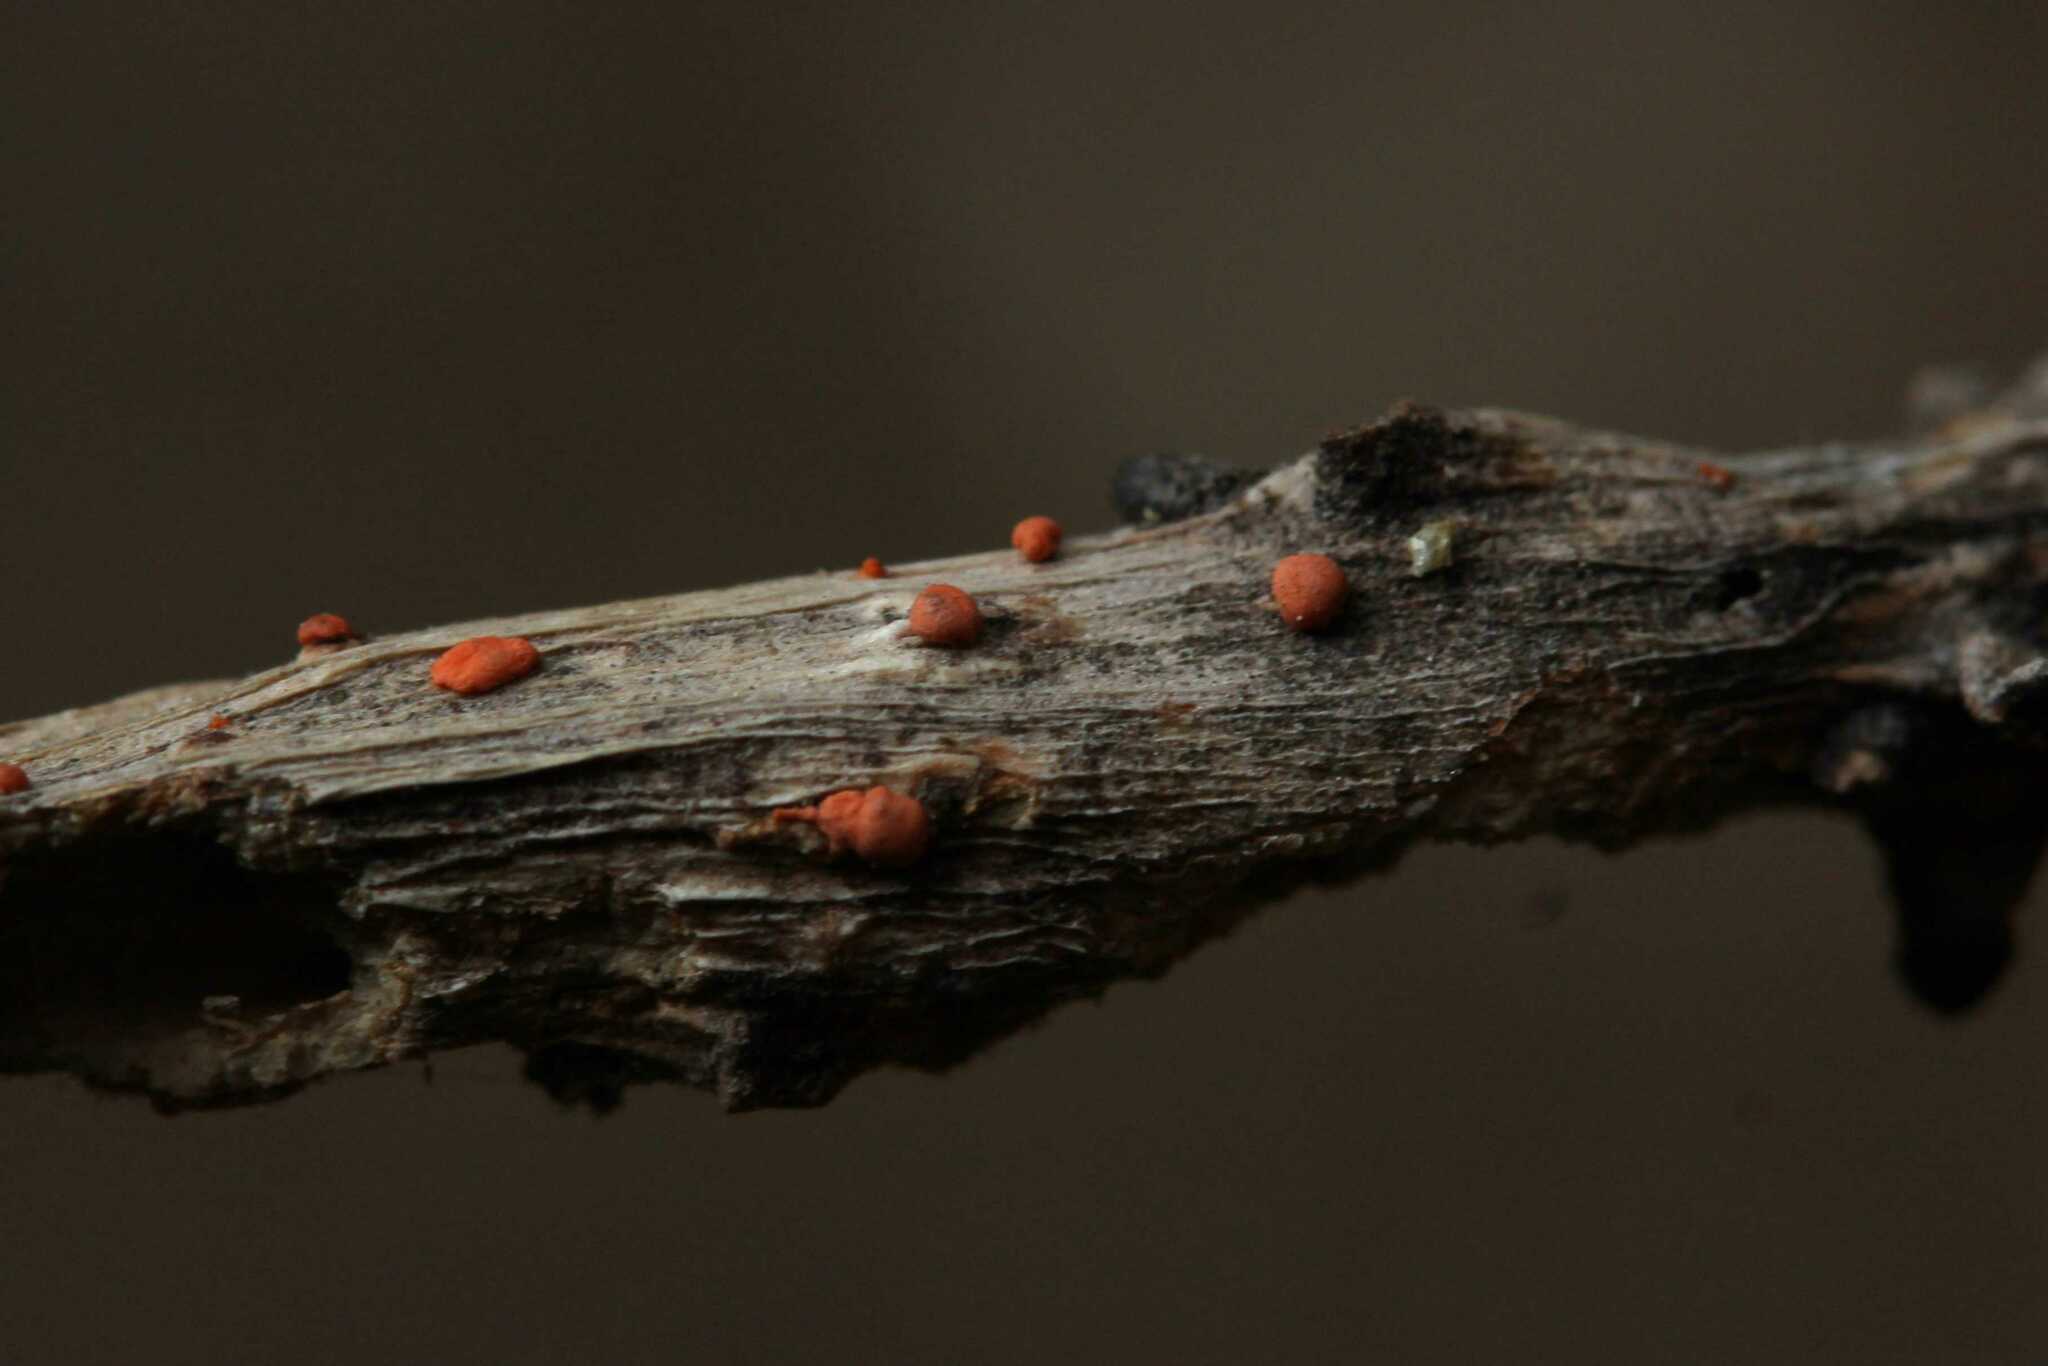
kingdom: Fungi
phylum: Ascomycota
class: Sordariomycetes
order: Hypocreales
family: Nectriaceae
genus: Nectria
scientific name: Nectria
